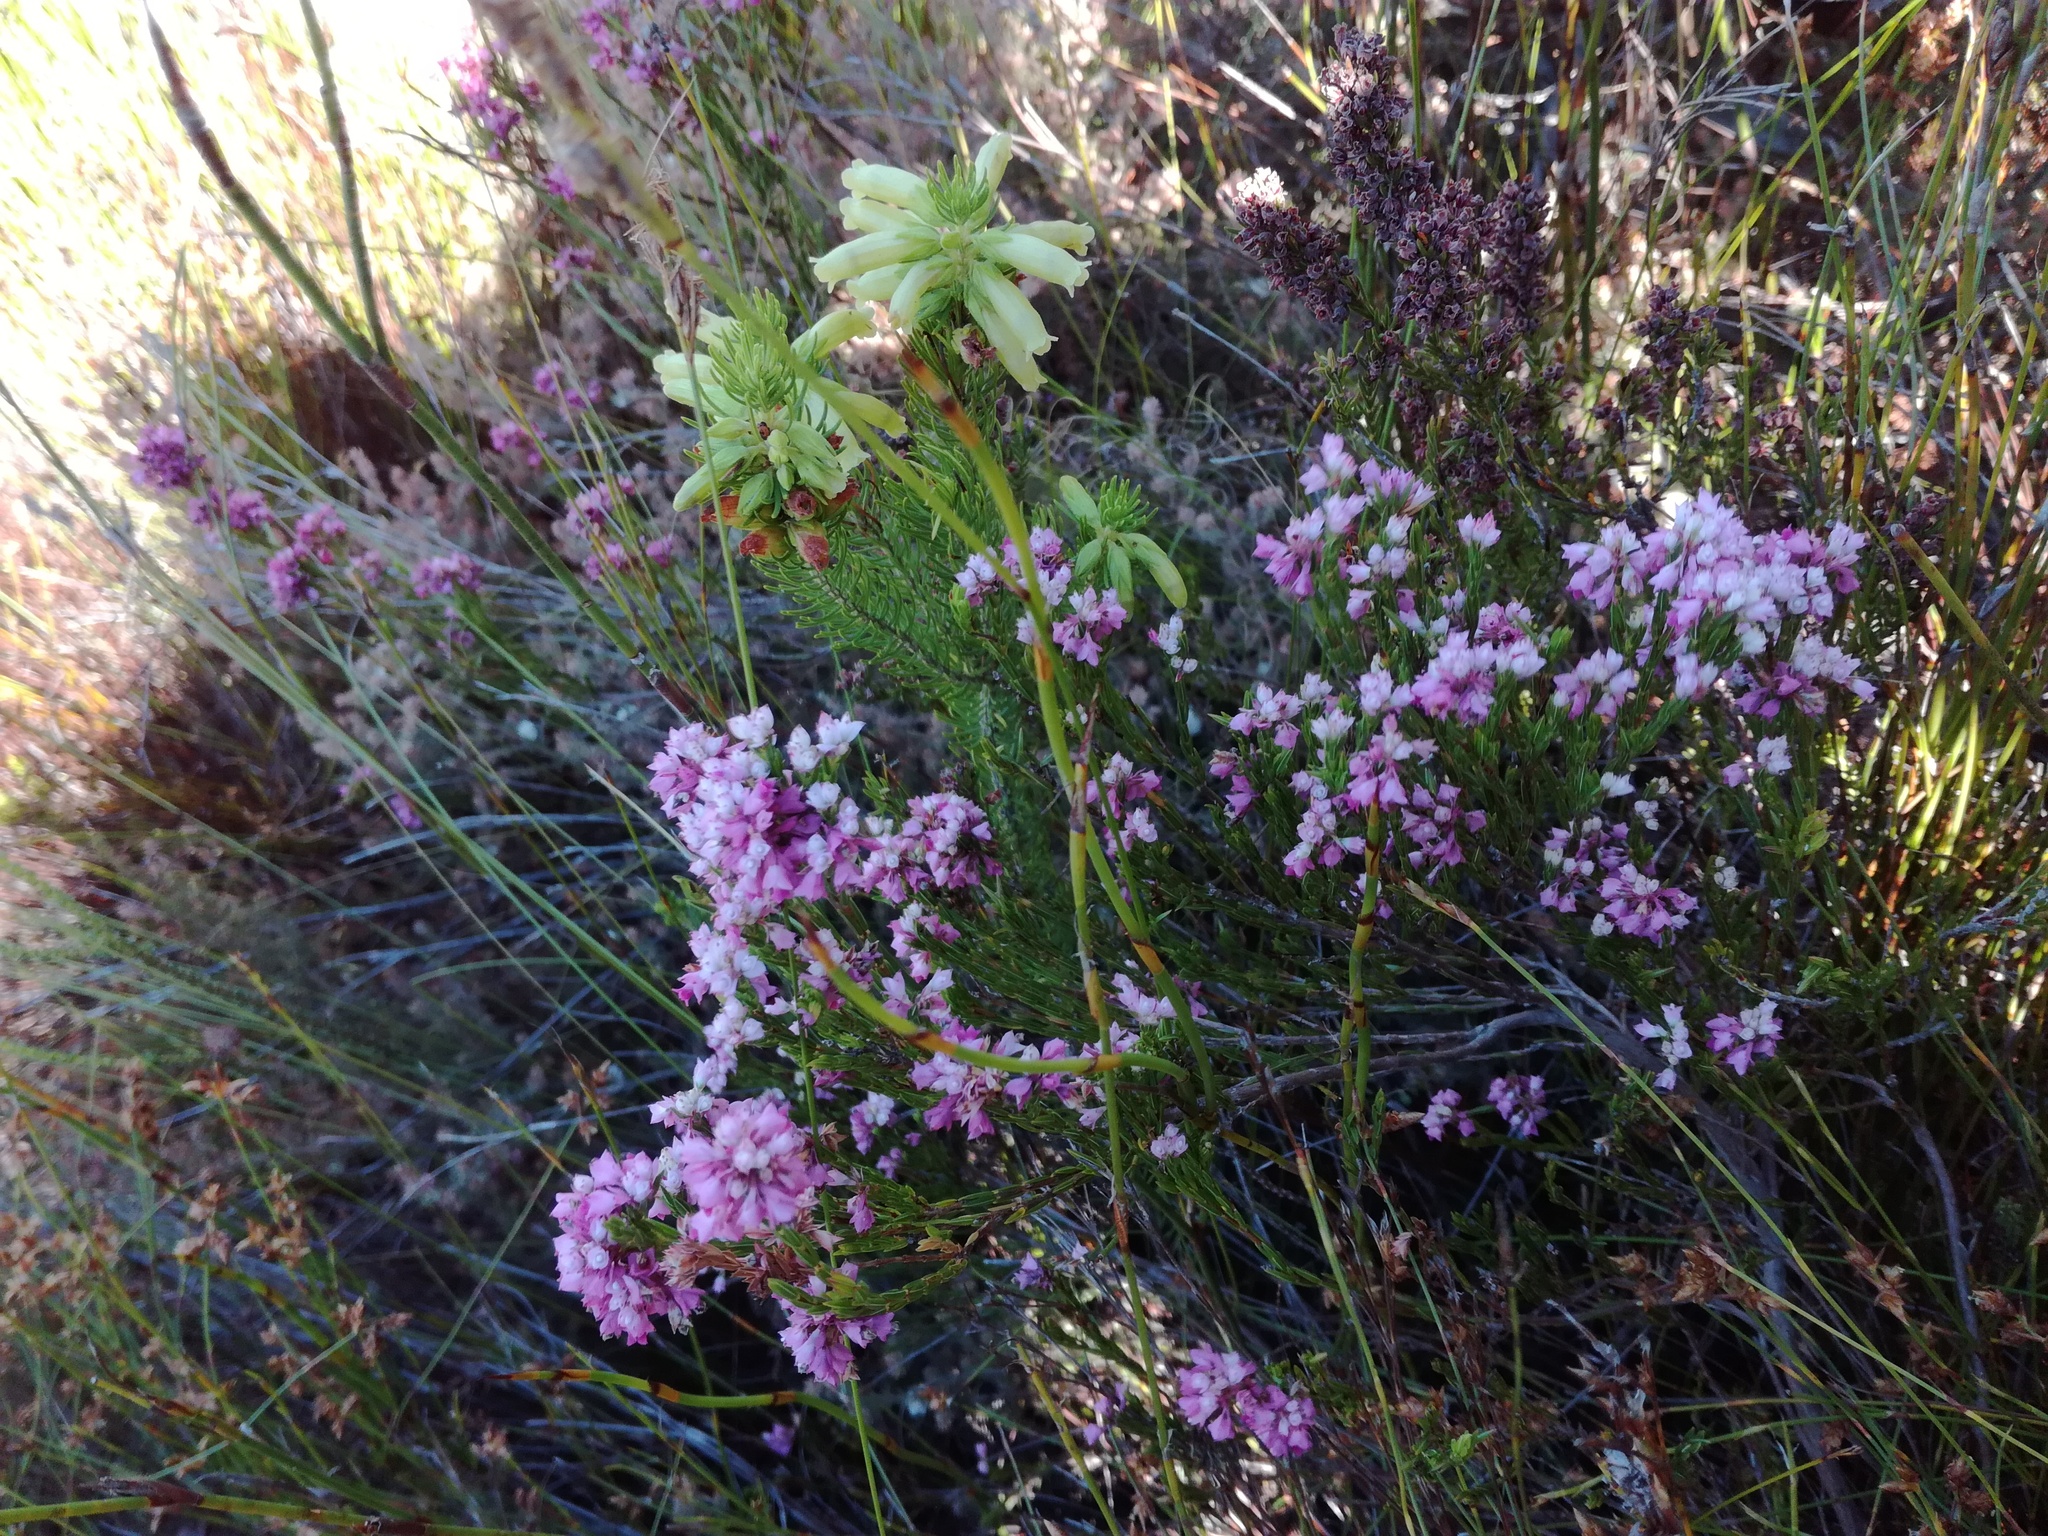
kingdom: Plantae
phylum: Tracheophyta
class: Magnoliopsida
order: Ericales
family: Ericaceae
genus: Erica
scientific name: Erica corifolia
